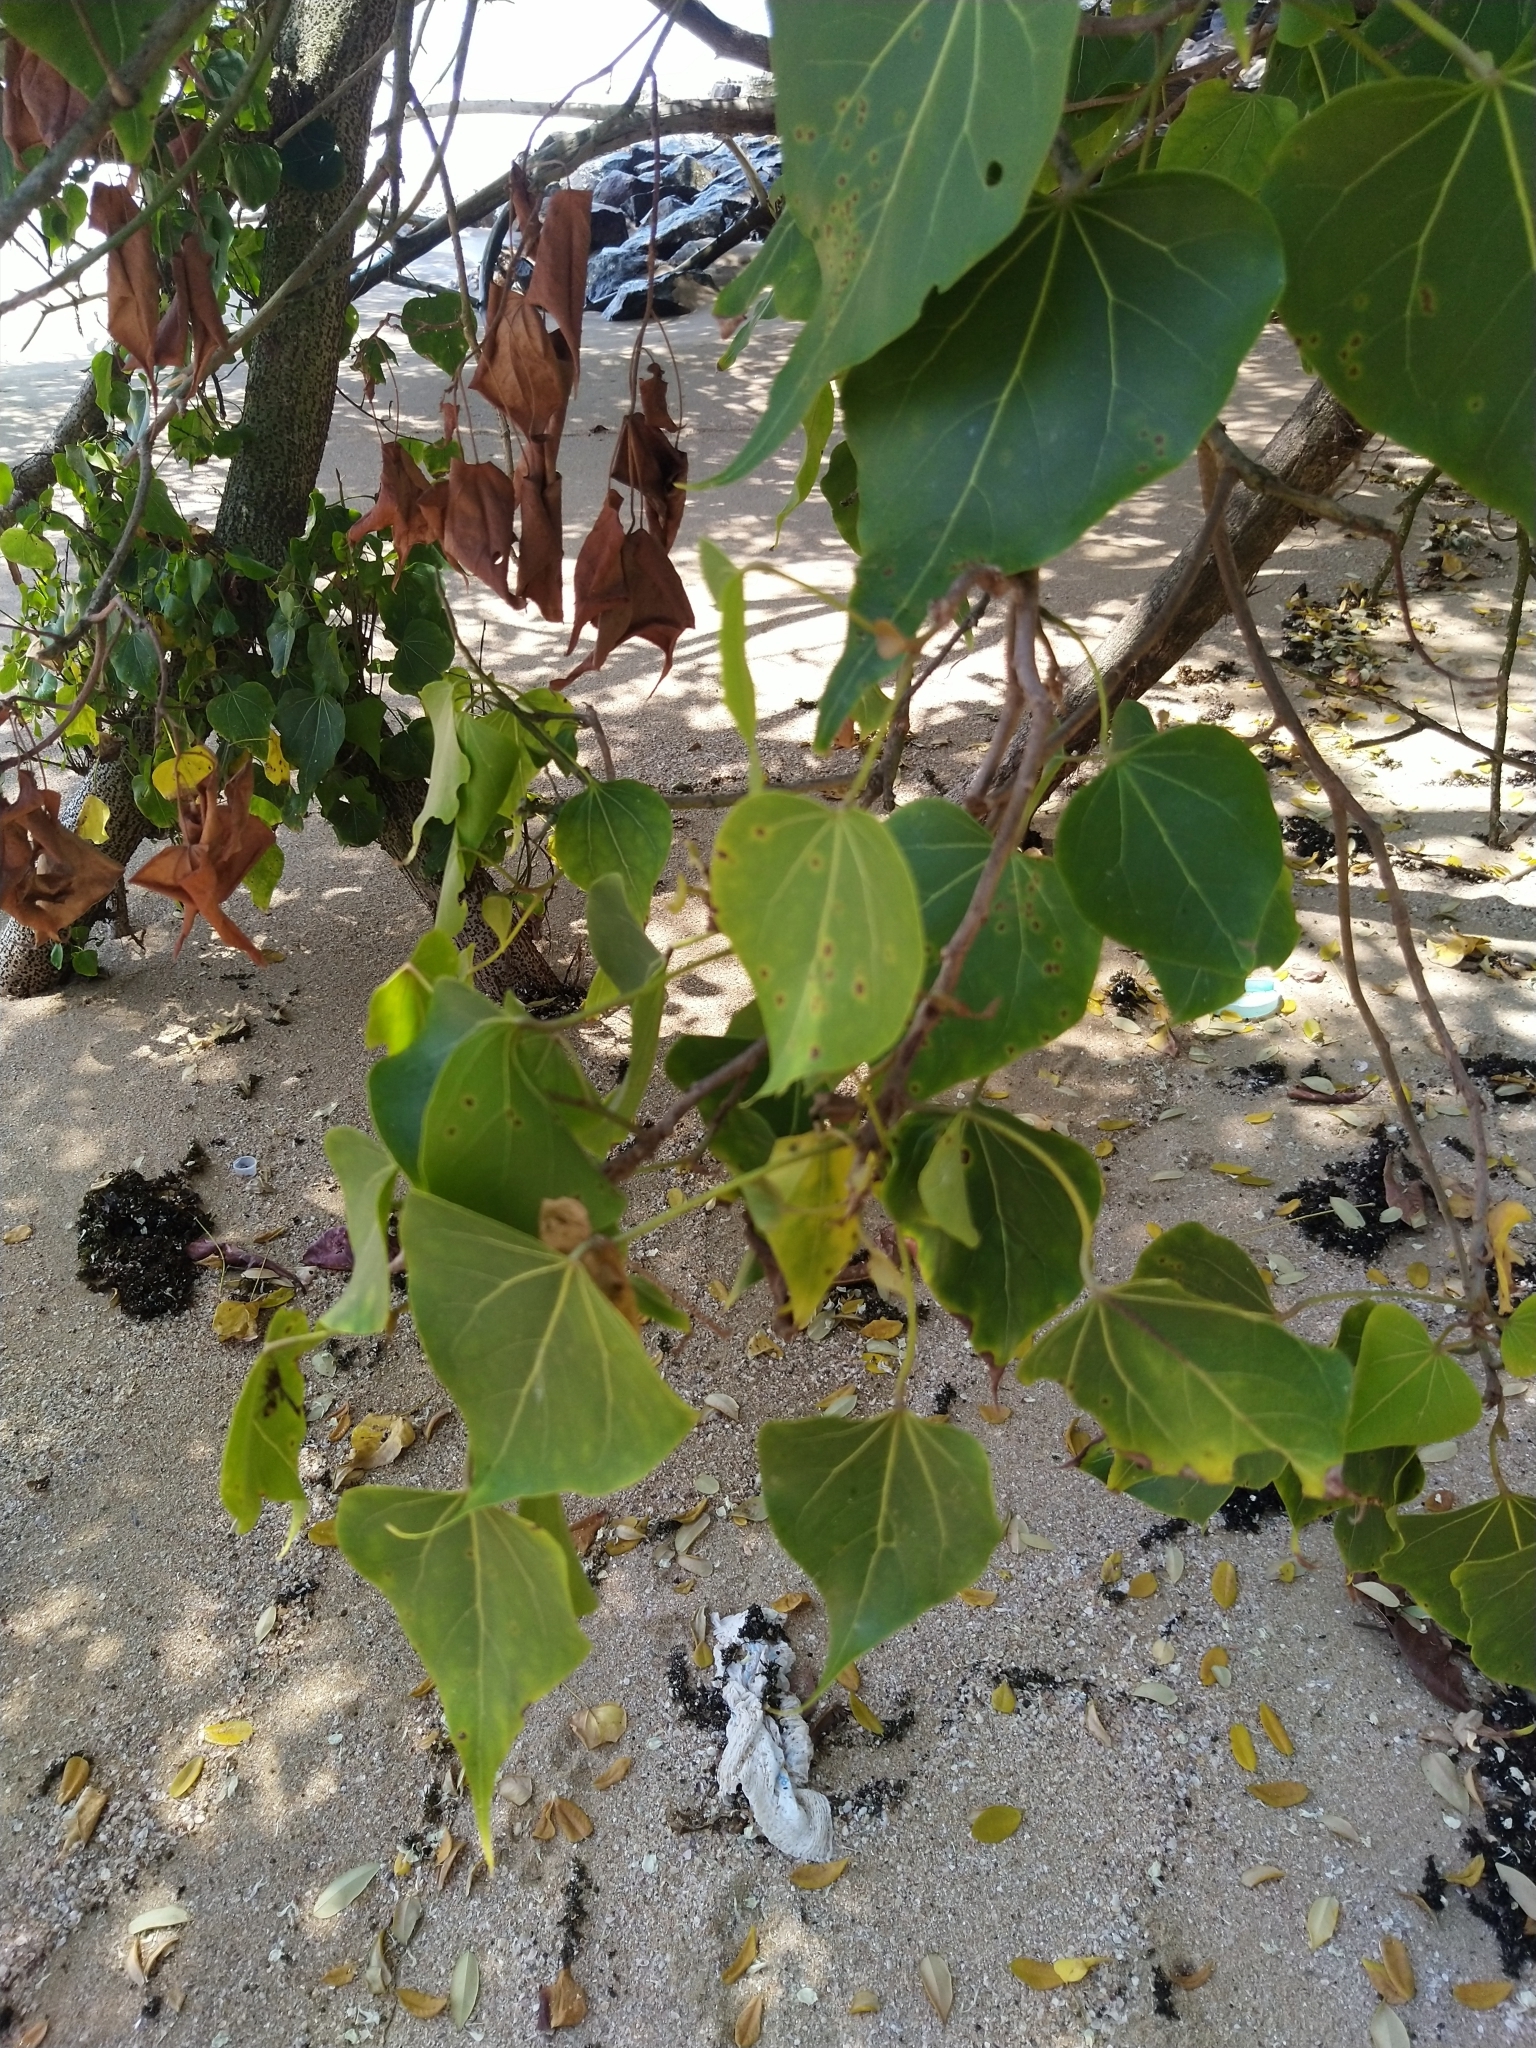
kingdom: Plantae
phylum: Tracheophyta
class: Magnoliopsida
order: Malvales
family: Malvaceae
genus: Thespesia
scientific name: Thespesia populnea
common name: Seaside mahoe
